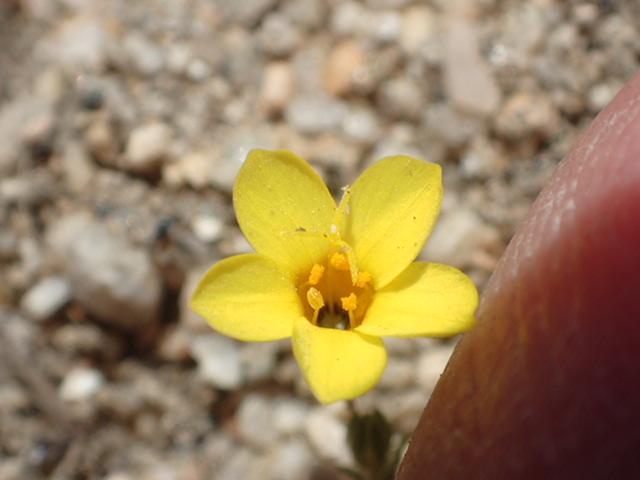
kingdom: Plantae
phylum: Tracheophyta
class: Magnoliopsida
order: Ericales
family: Polemoniaceae
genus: Leptosiphon
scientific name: Leptosiphon chrysanthus
